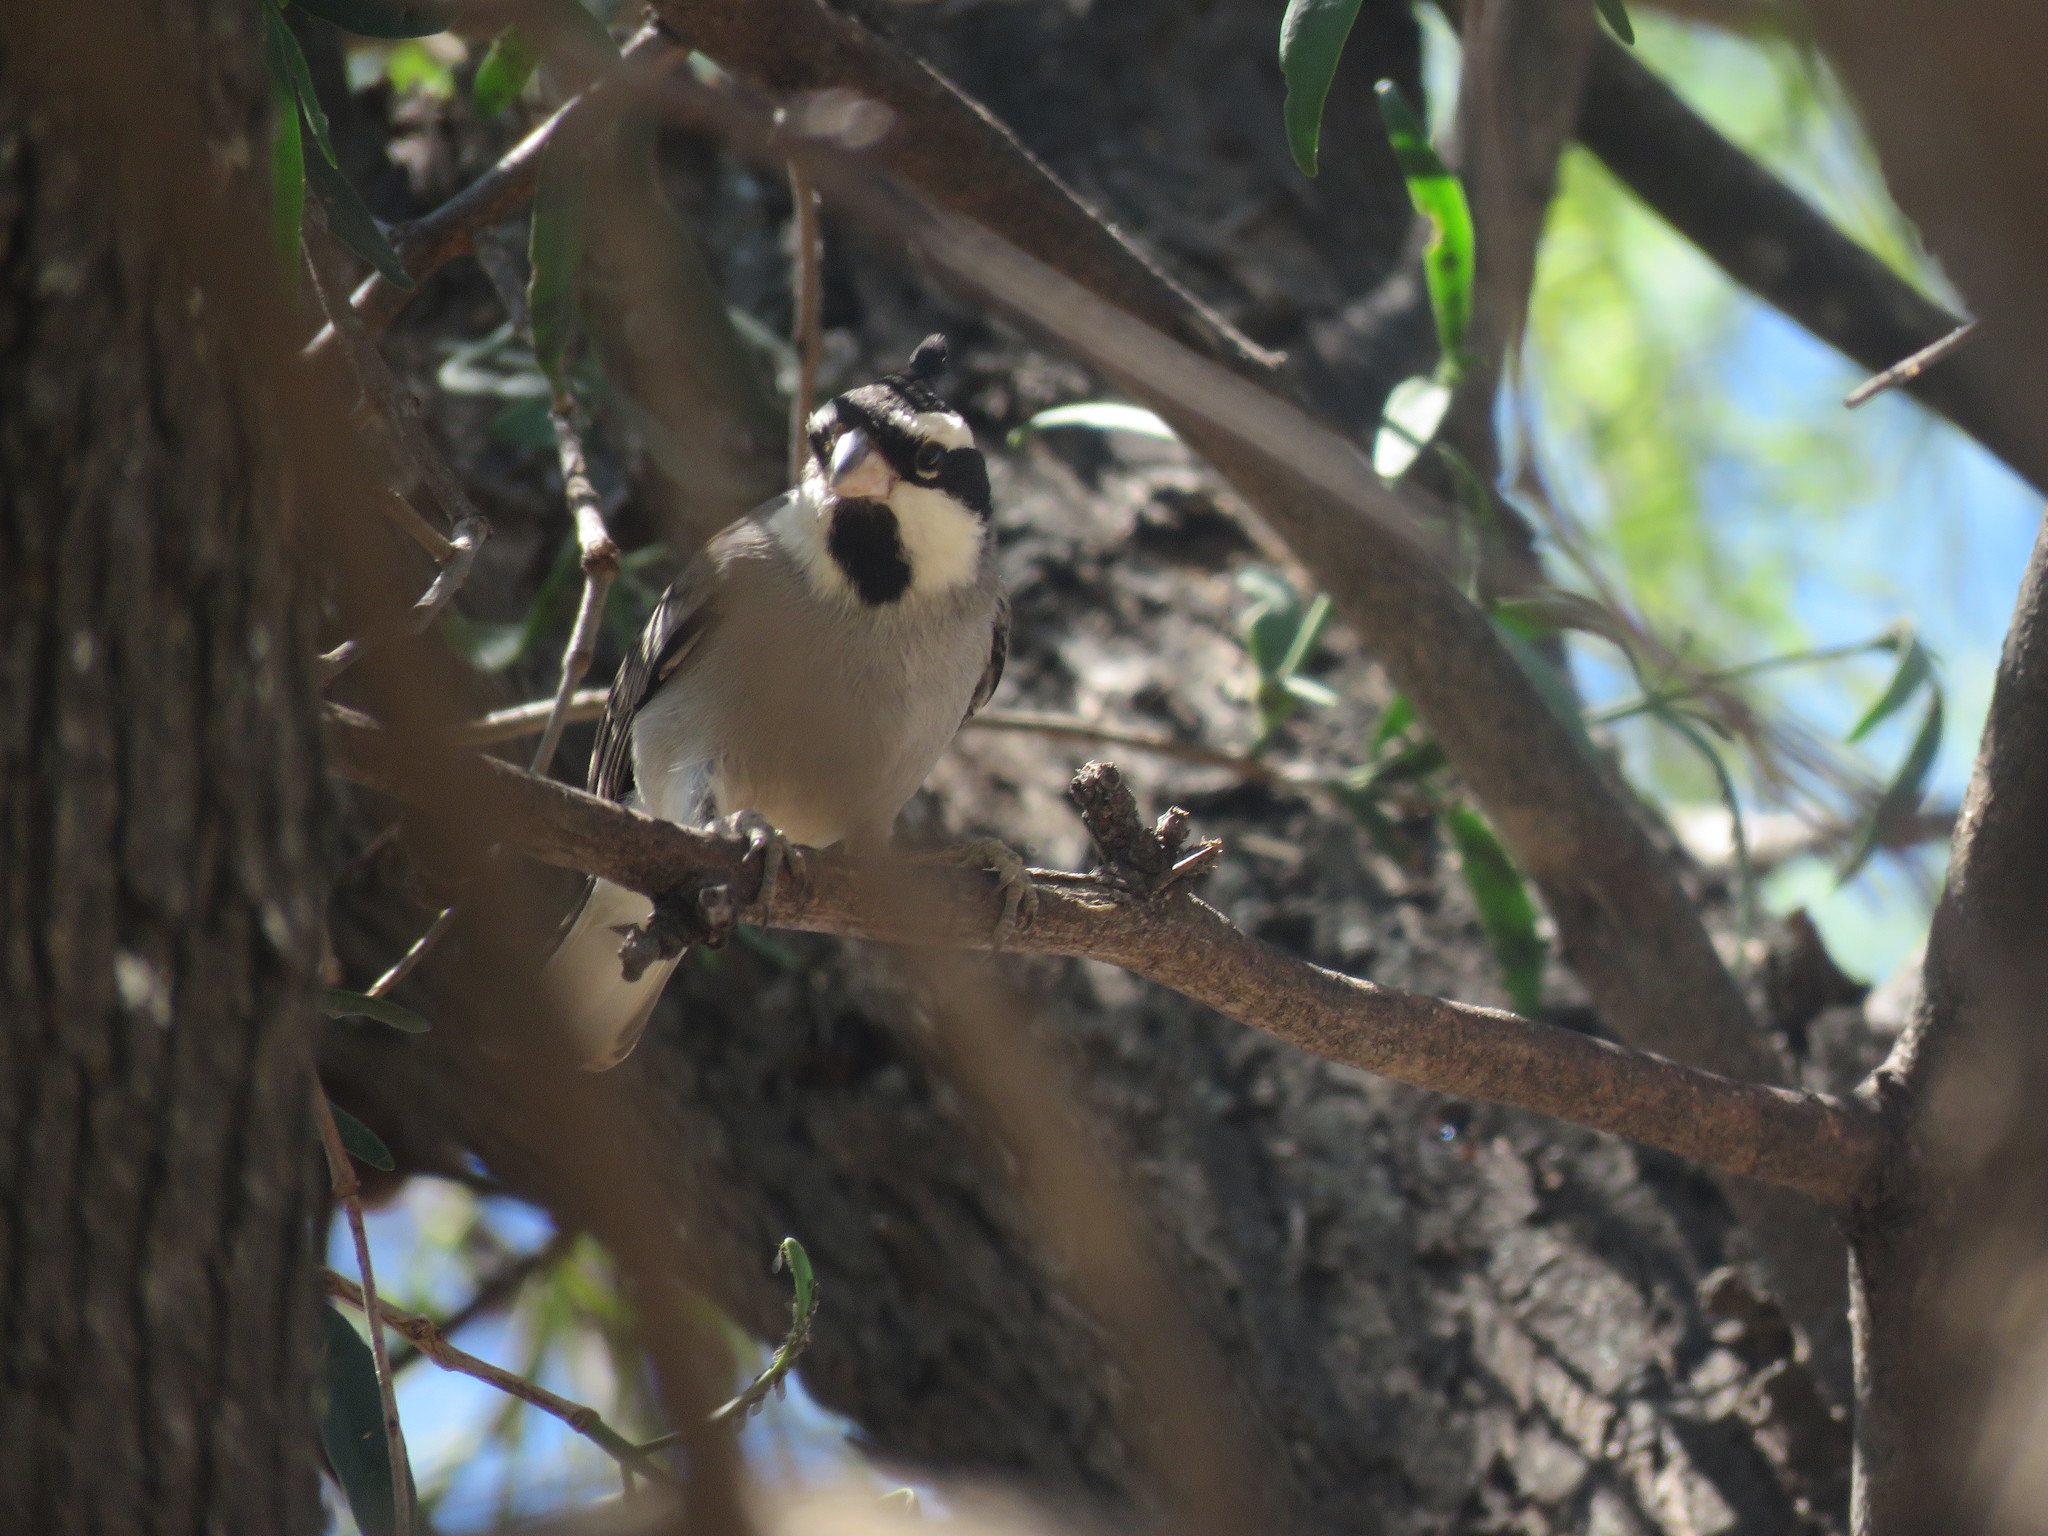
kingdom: Animalia
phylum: Chordata
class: Aves
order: Passeriformes
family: Thraupidae
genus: Lophospingus
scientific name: Lophospingus pusillus
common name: Black-crested finch
